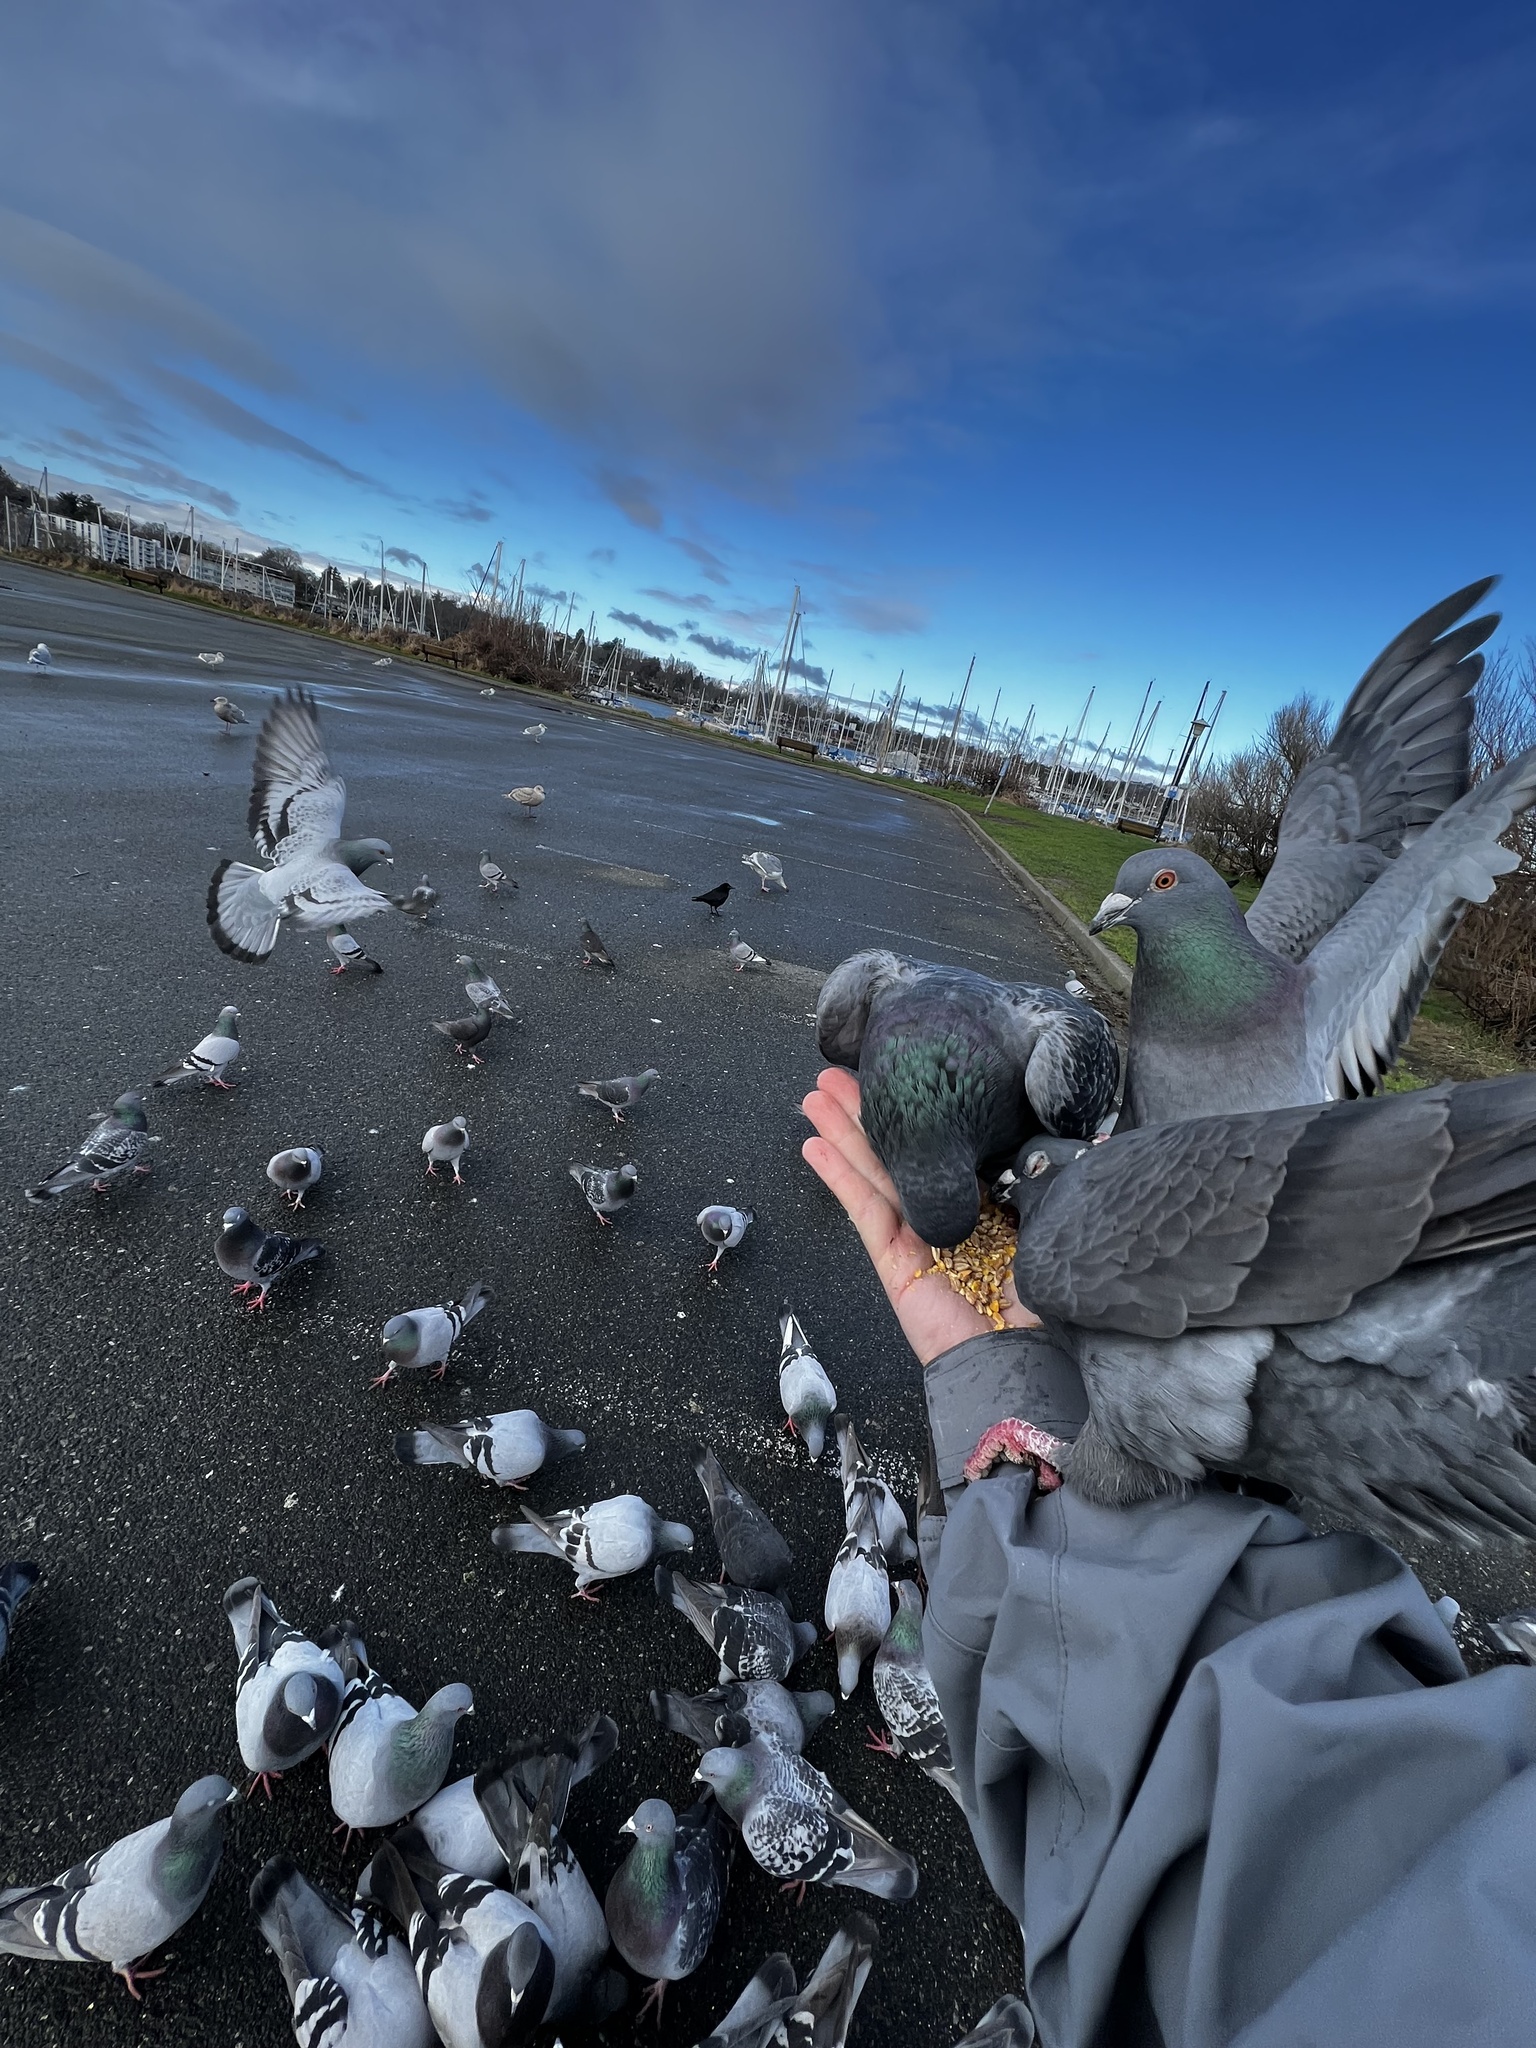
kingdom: Animalia
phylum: Chordata
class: Aves
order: Columbiformes
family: Columbidae
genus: Columba
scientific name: Columba livia
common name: Rock pigeon
